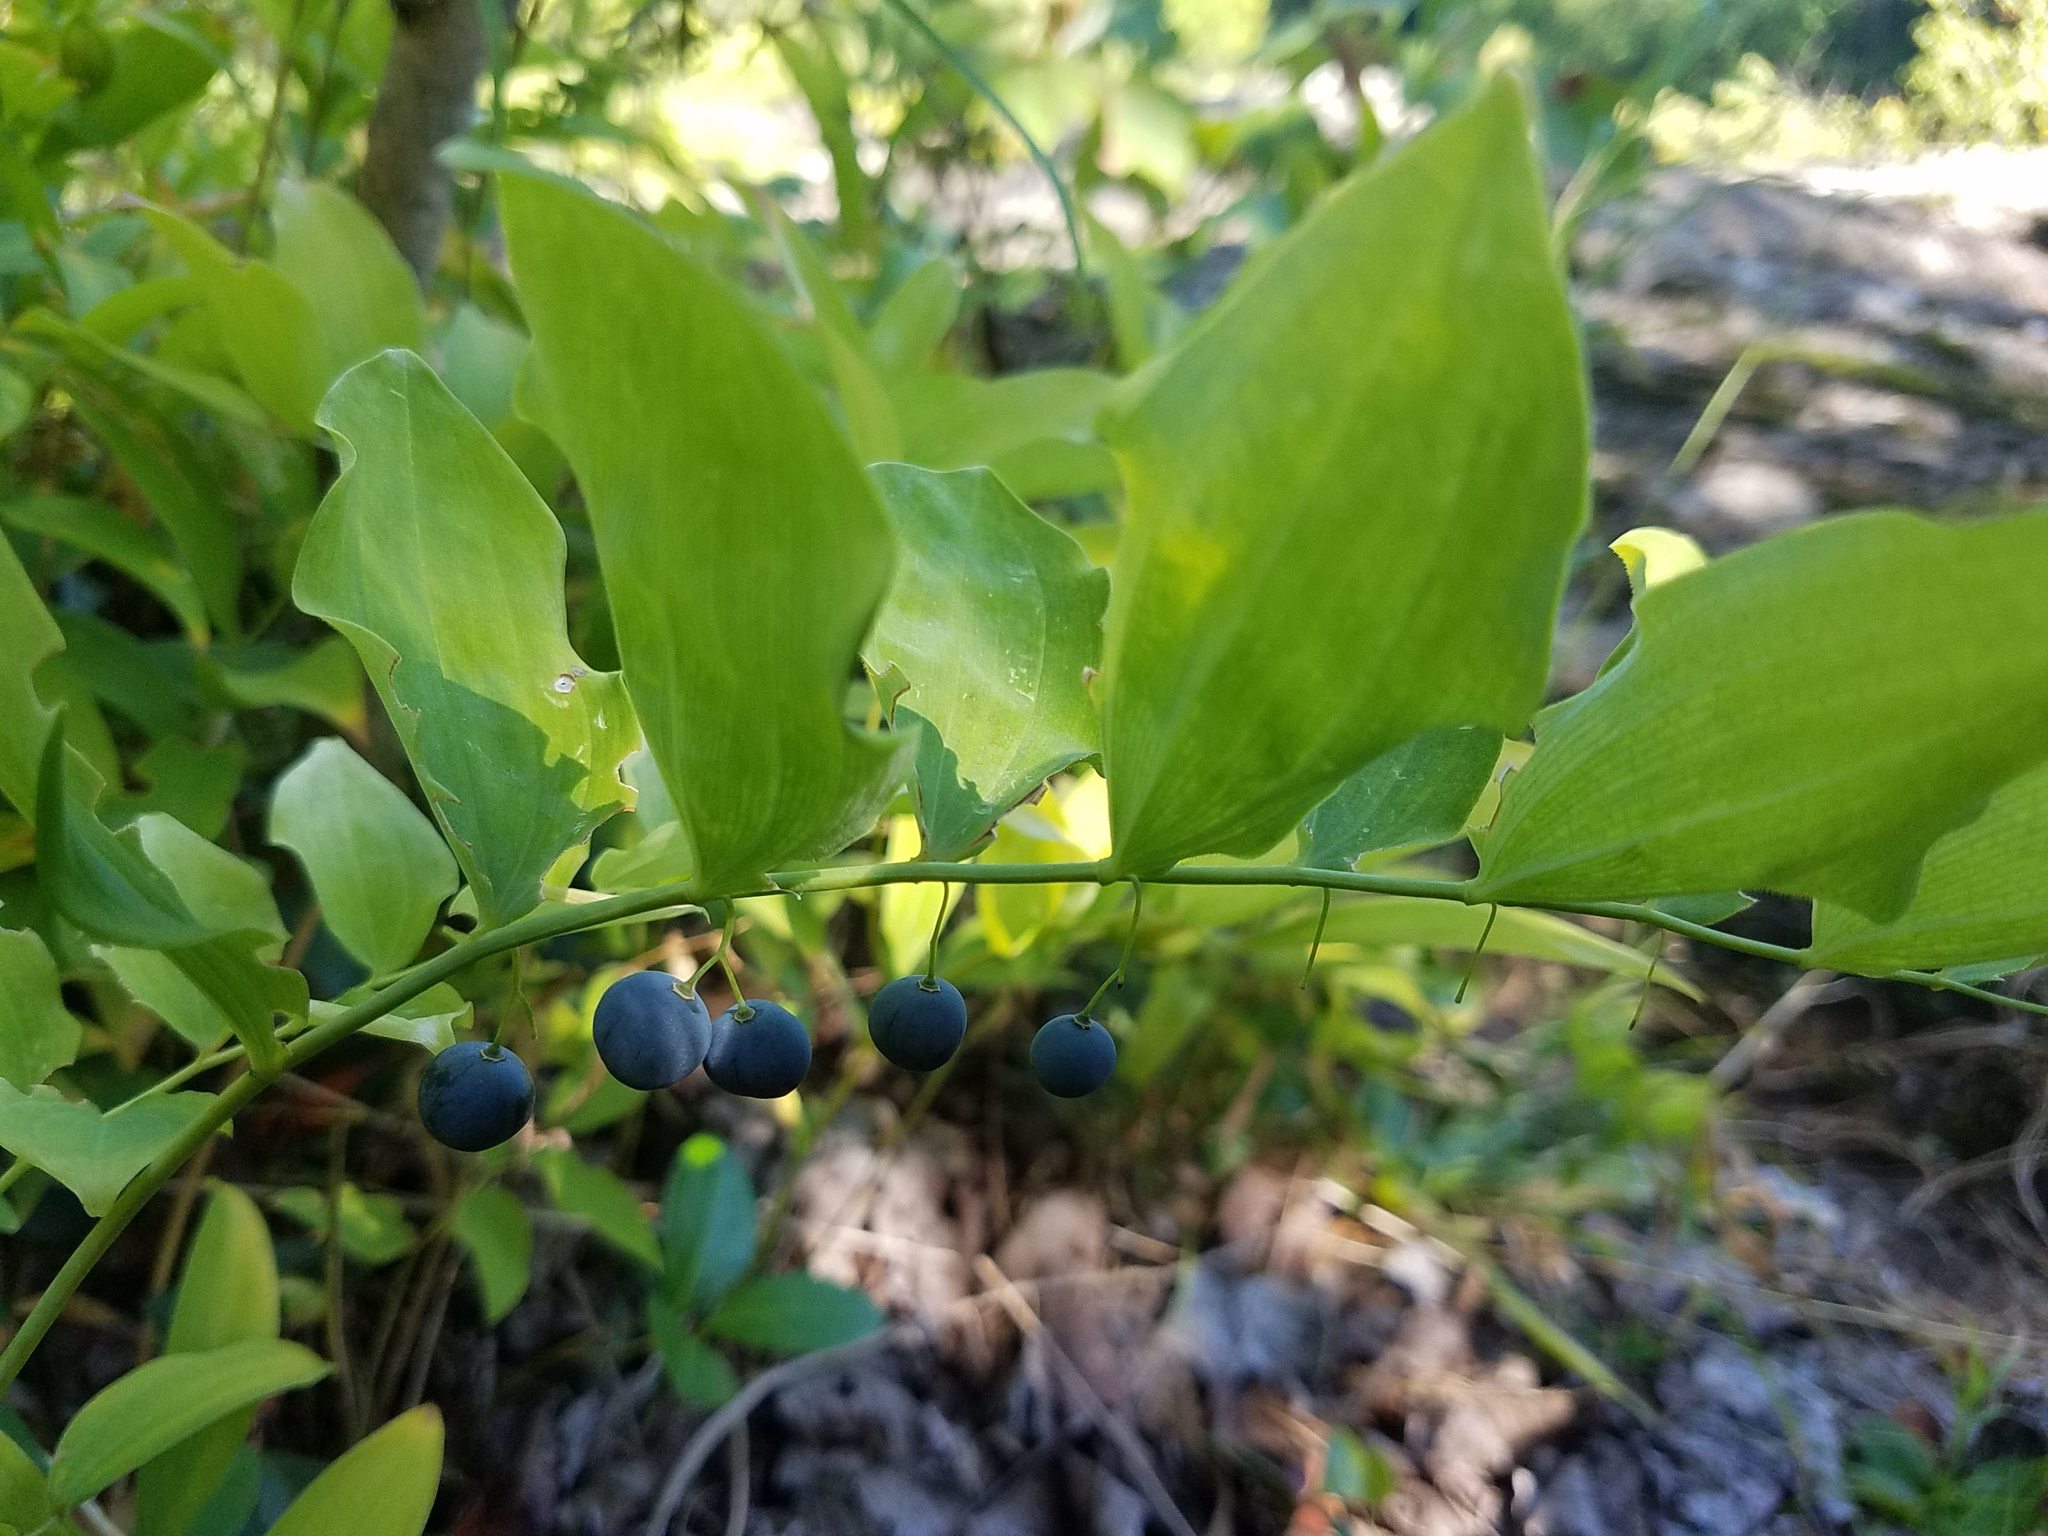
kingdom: Plantae
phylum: Tracheophyta
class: Liliopsida
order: Asparagales
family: Asparagaceae
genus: Polygonatum
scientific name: Polygonatum pubescens
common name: Downy solomon's seal
